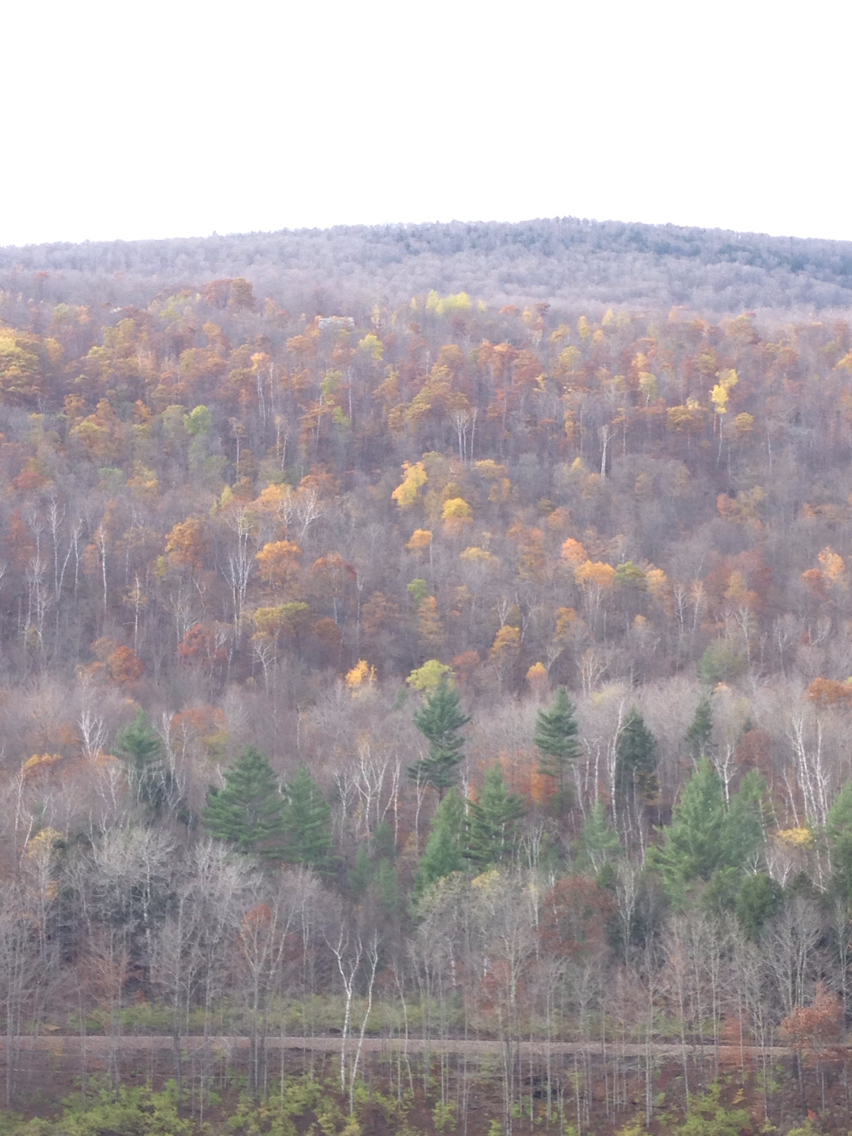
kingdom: Plantae
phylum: Tracheophyta
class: Magnoliopsida
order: Fagales
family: Fagaceae
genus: Quercus
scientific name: Quercus rubra
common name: Red oak
